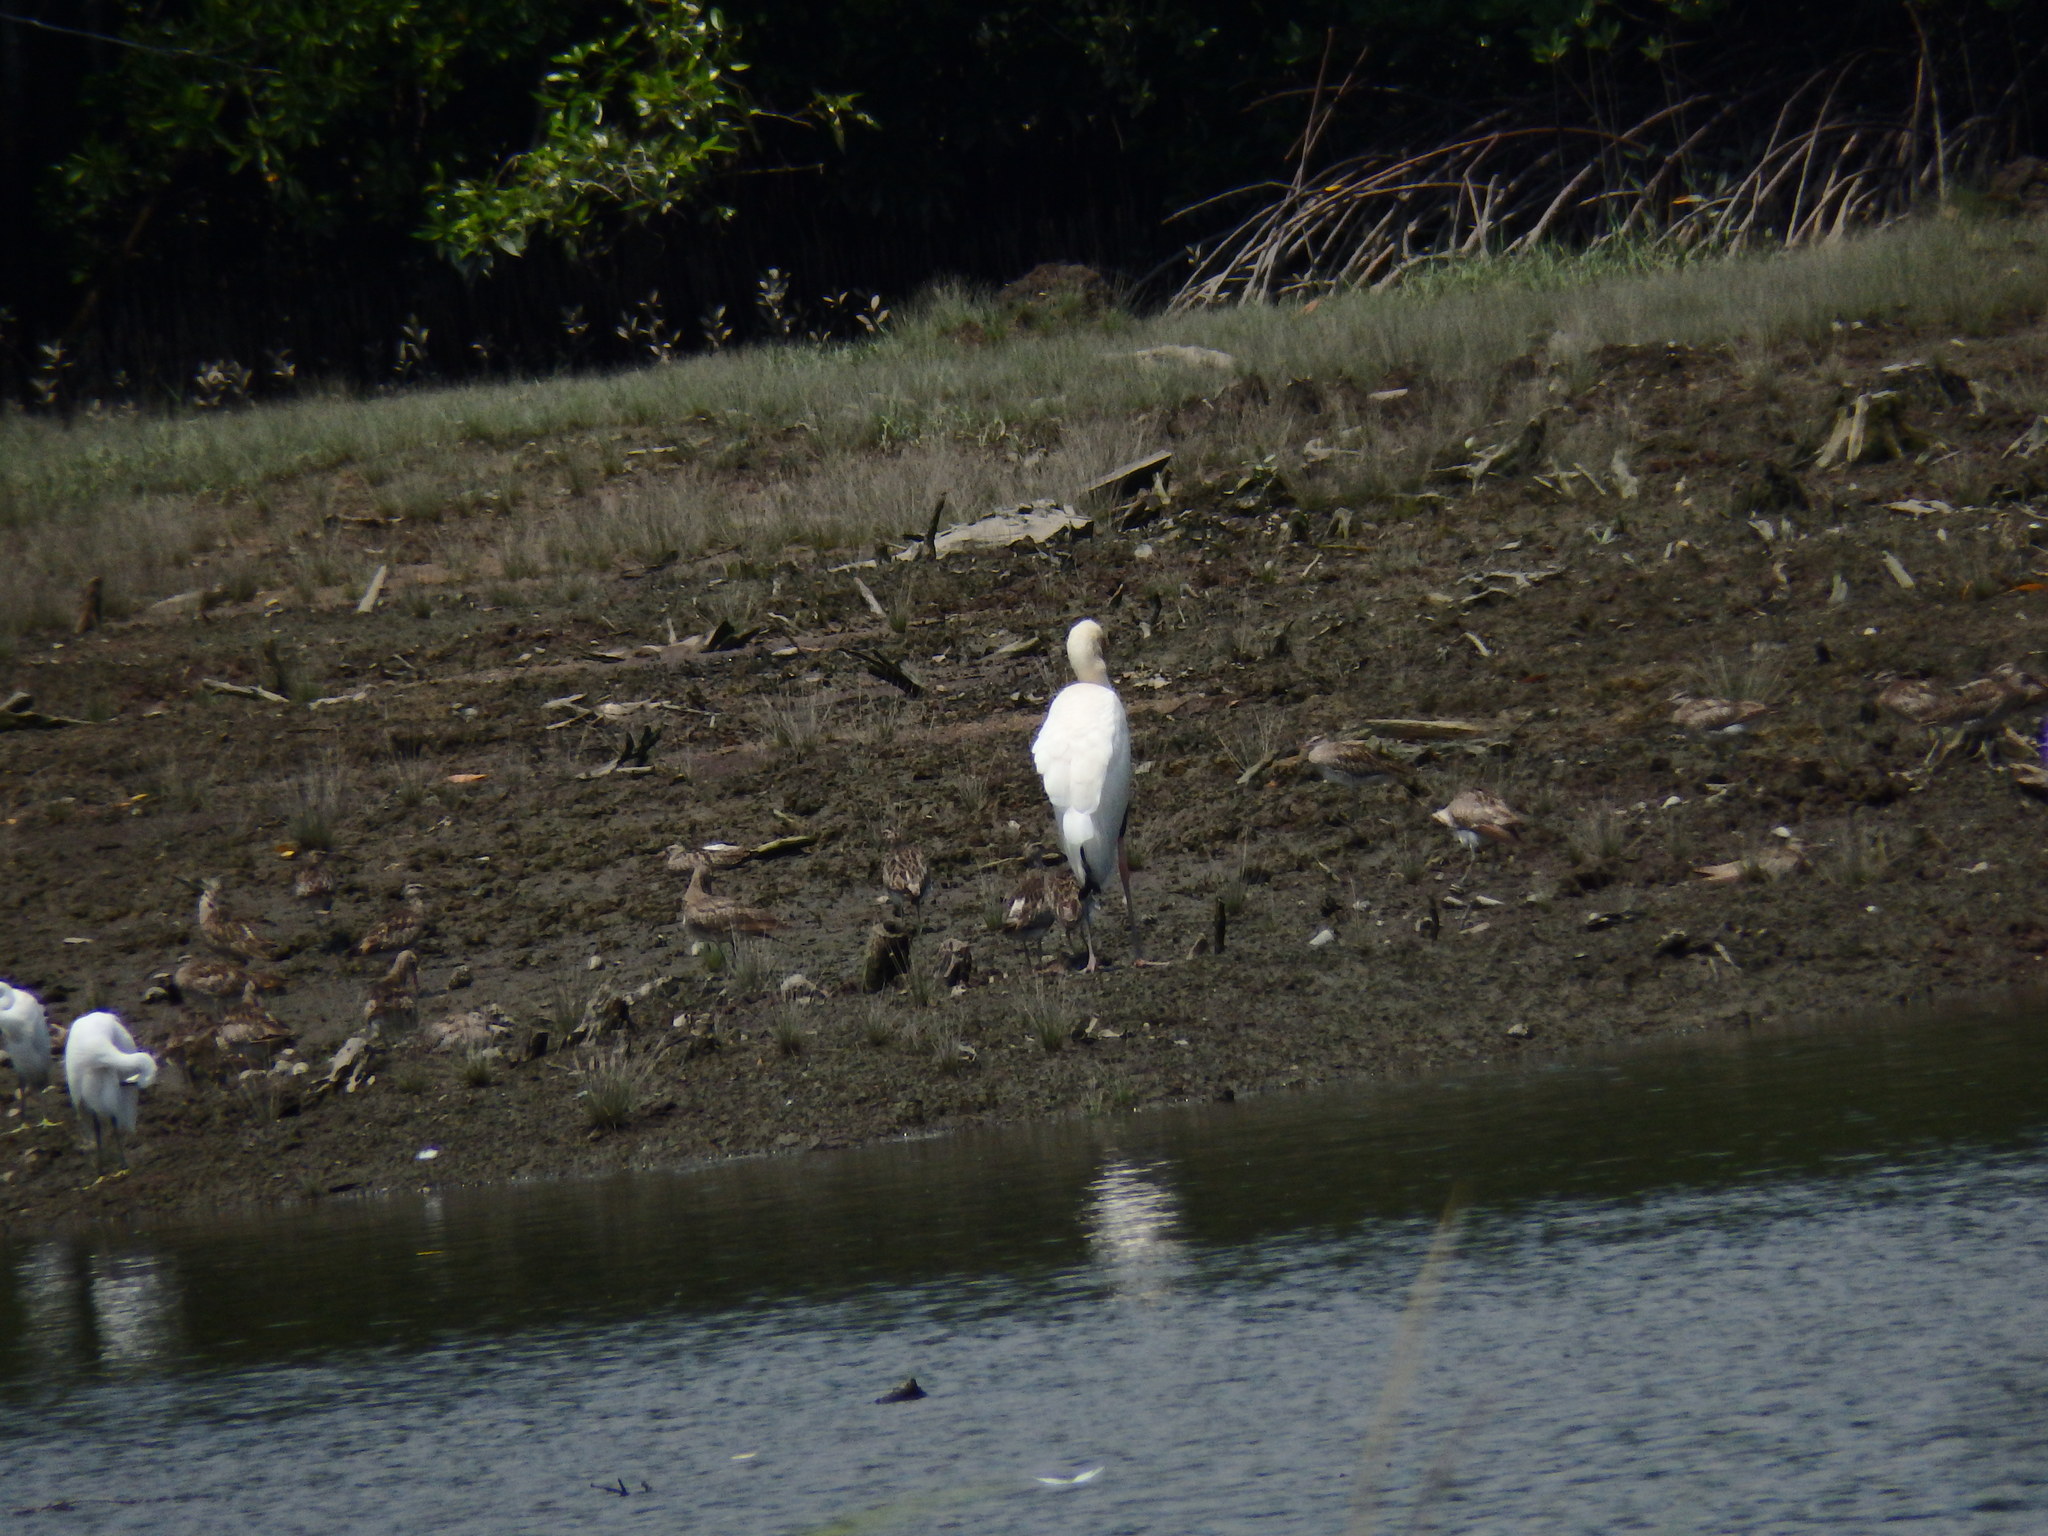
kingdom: Animalia
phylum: Chordata
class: Aves
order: Ciconiiformes
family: Ciconiidae
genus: Mycteria
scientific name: Mycteria cinerea
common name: Milky stork
